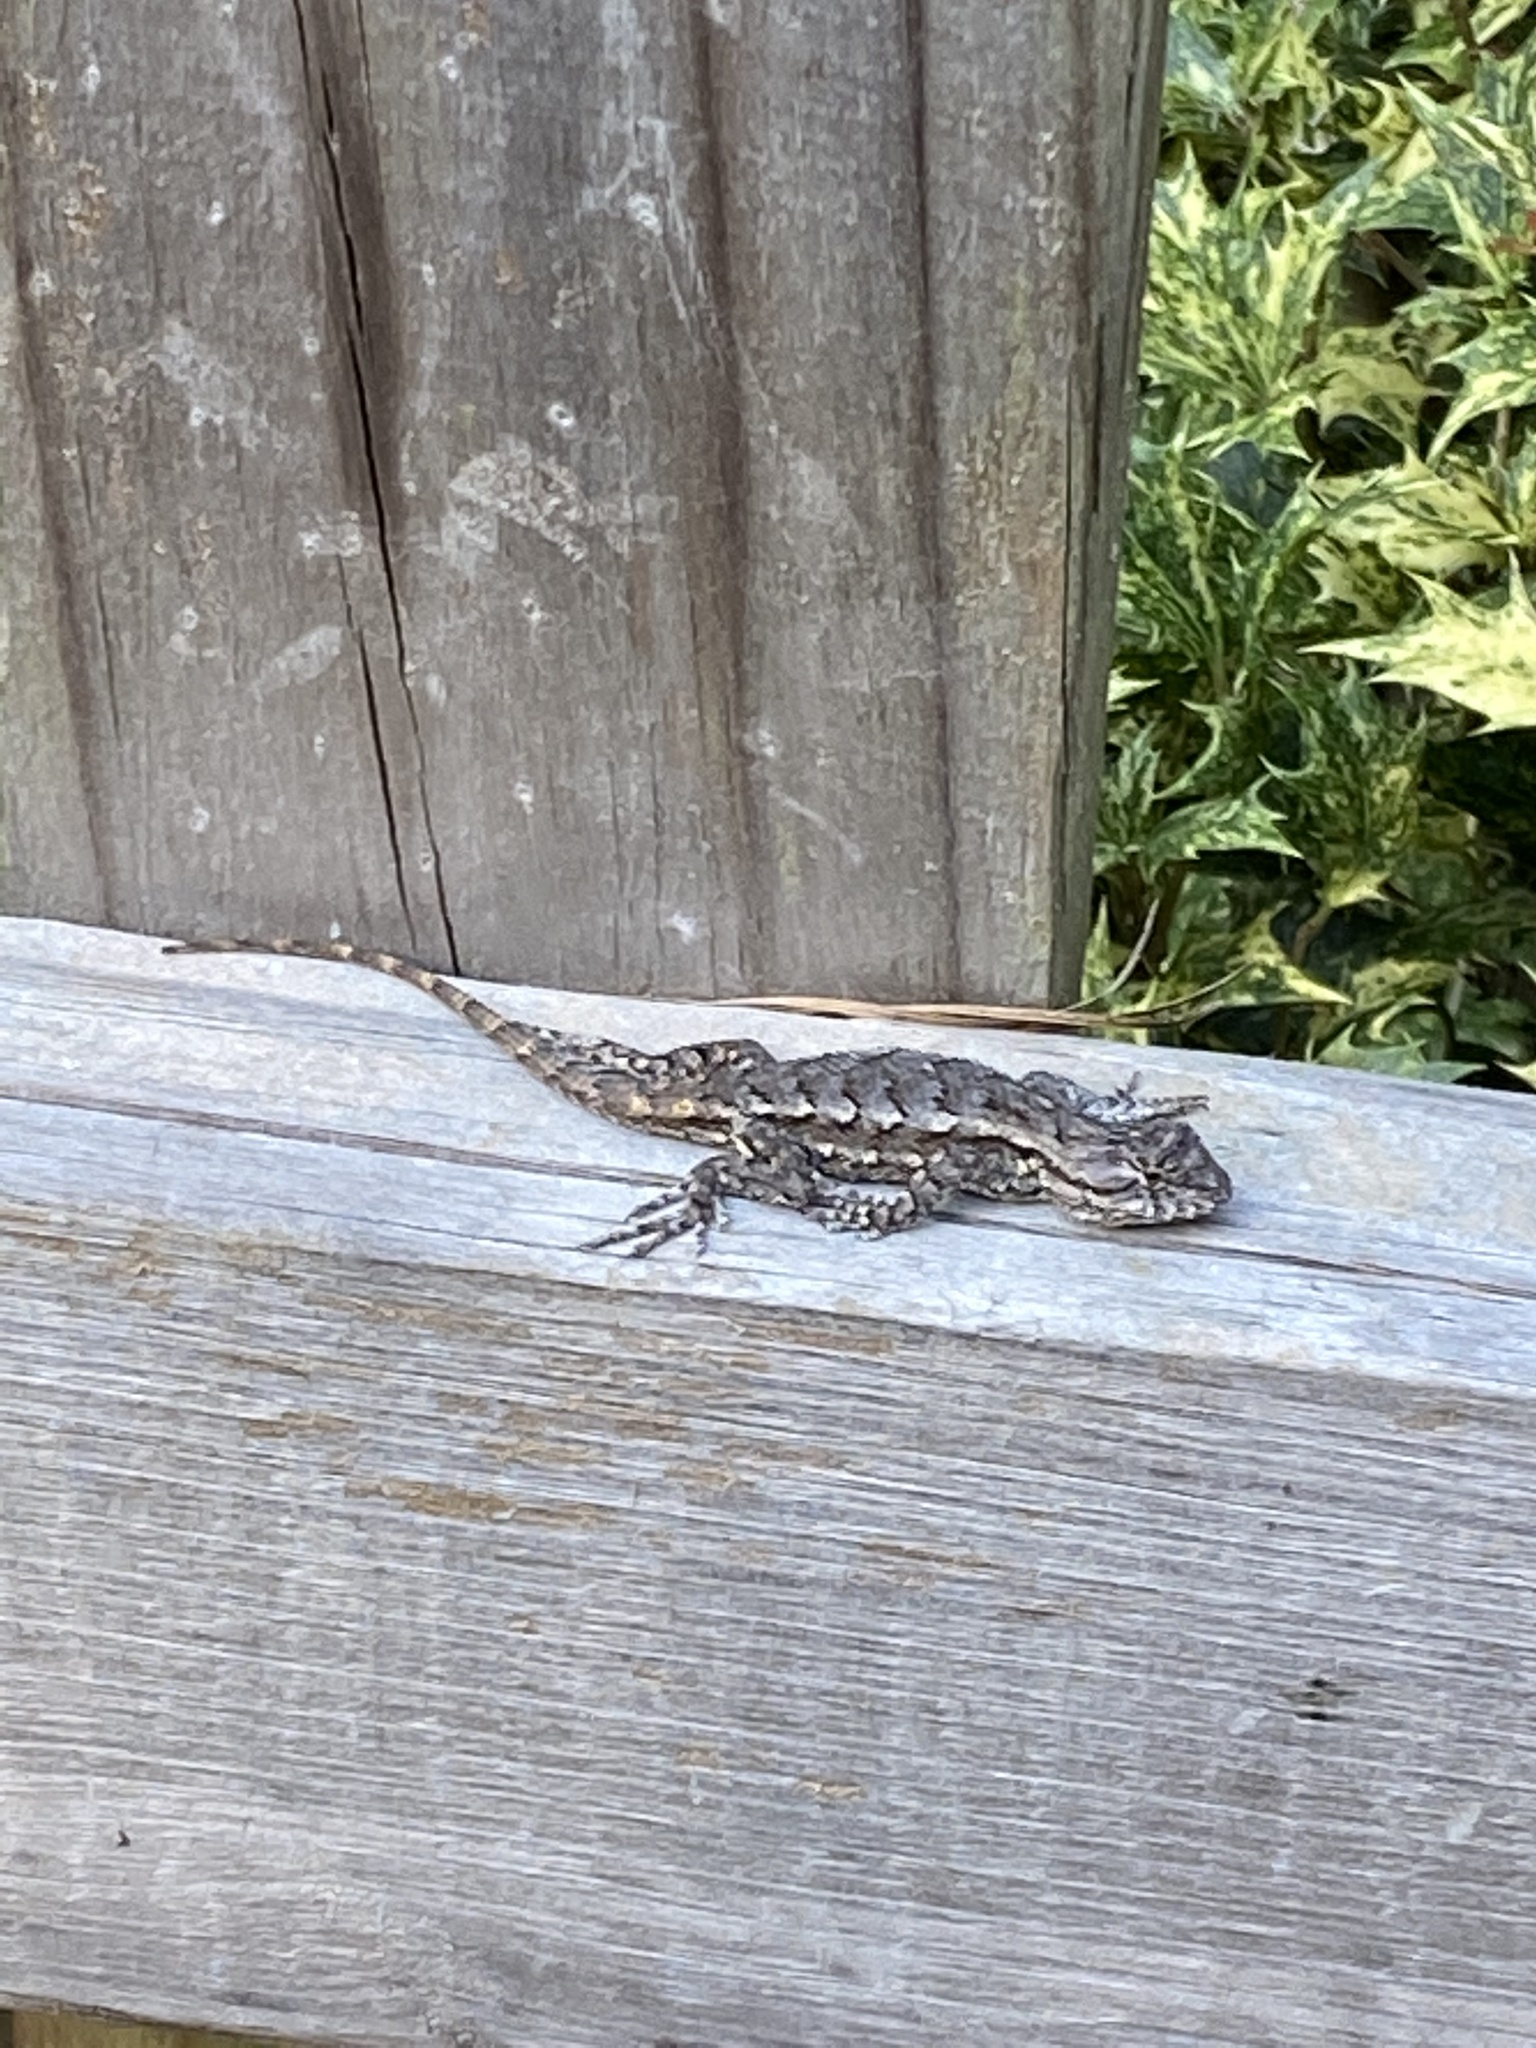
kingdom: Animalia
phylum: Chordata
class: Squamata
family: Phrynosomatidae
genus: Sceloporus
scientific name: Sceloporus undulatus
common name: Eastern fence lizard
